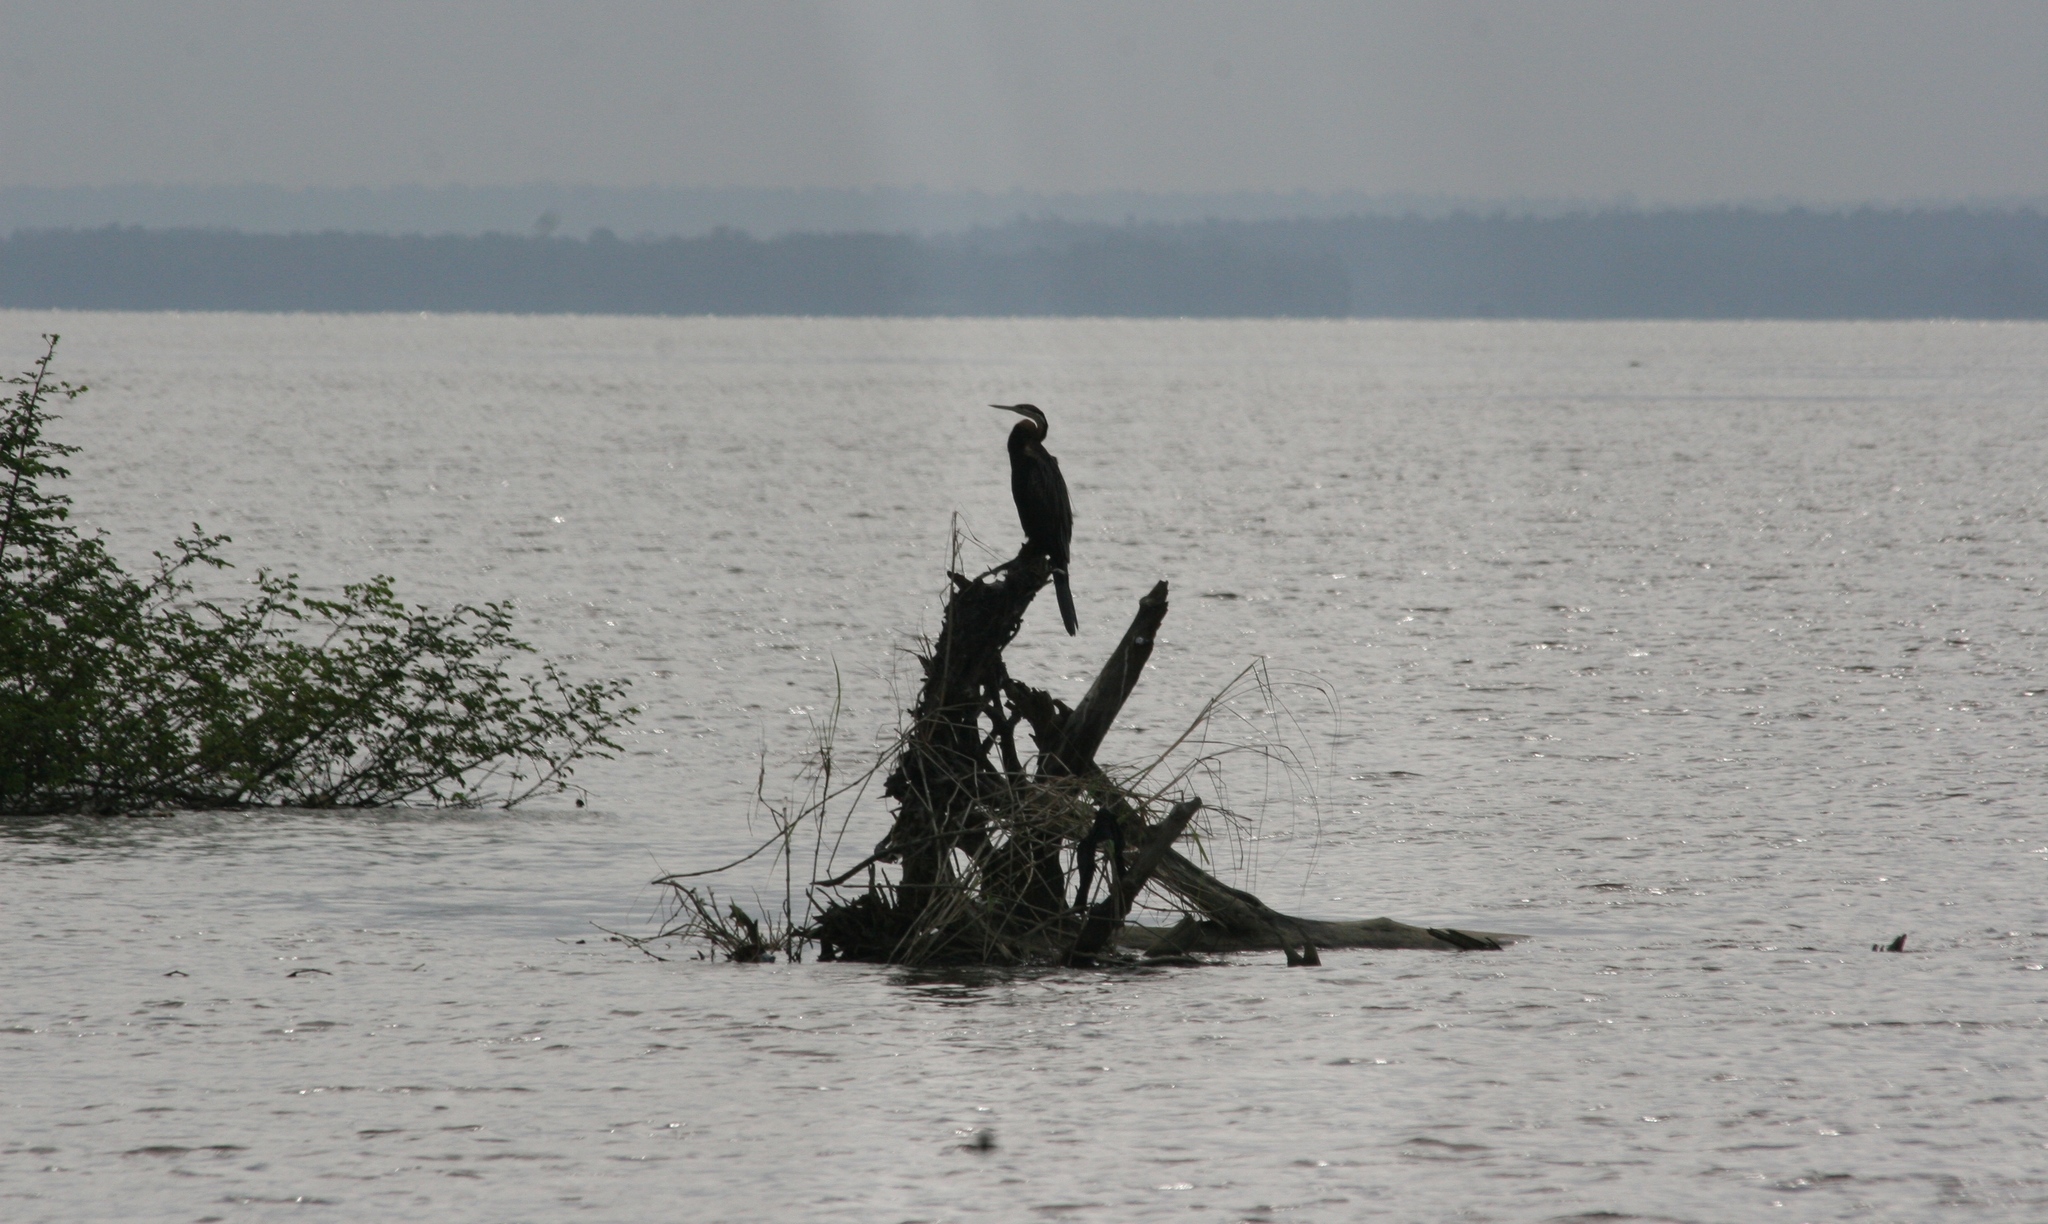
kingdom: Animalia
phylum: Chordata
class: Aves
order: Suliformes
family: Anhingidae
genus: Anhinga
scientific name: Anhinga rufa
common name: African darter
